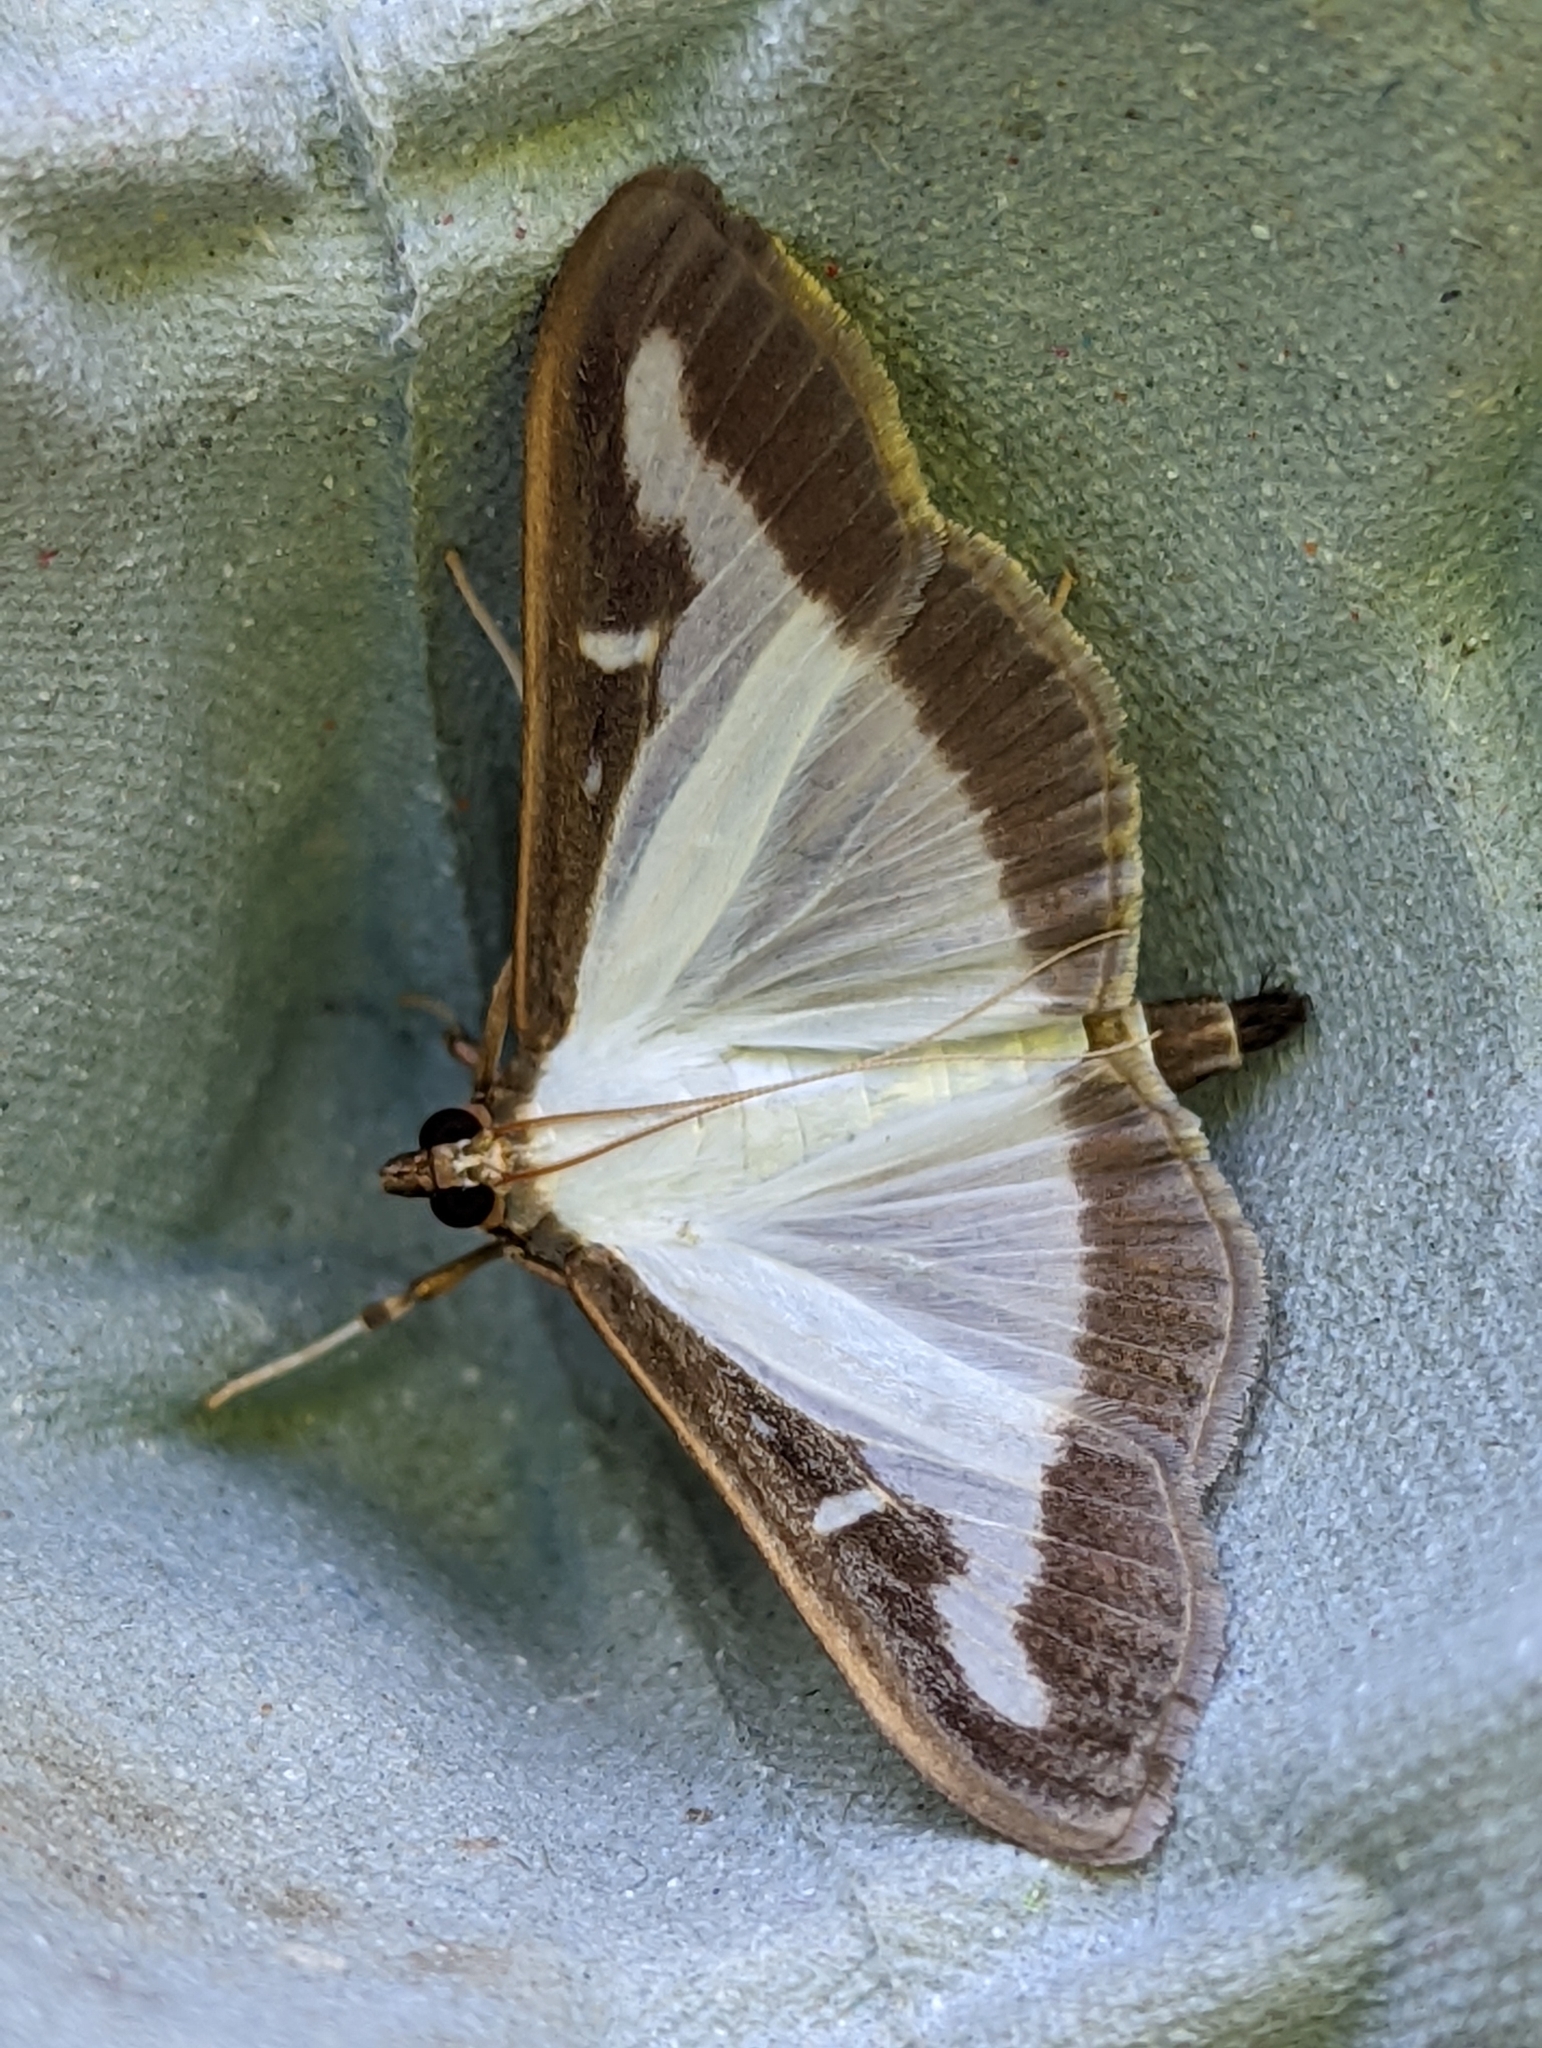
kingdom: Animalia
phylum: Arthropoda
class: Insecta
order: Lepidoptera
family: Crambidae
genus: Cydalima
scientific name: Cydalima perspectalis
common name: Box tree moth
